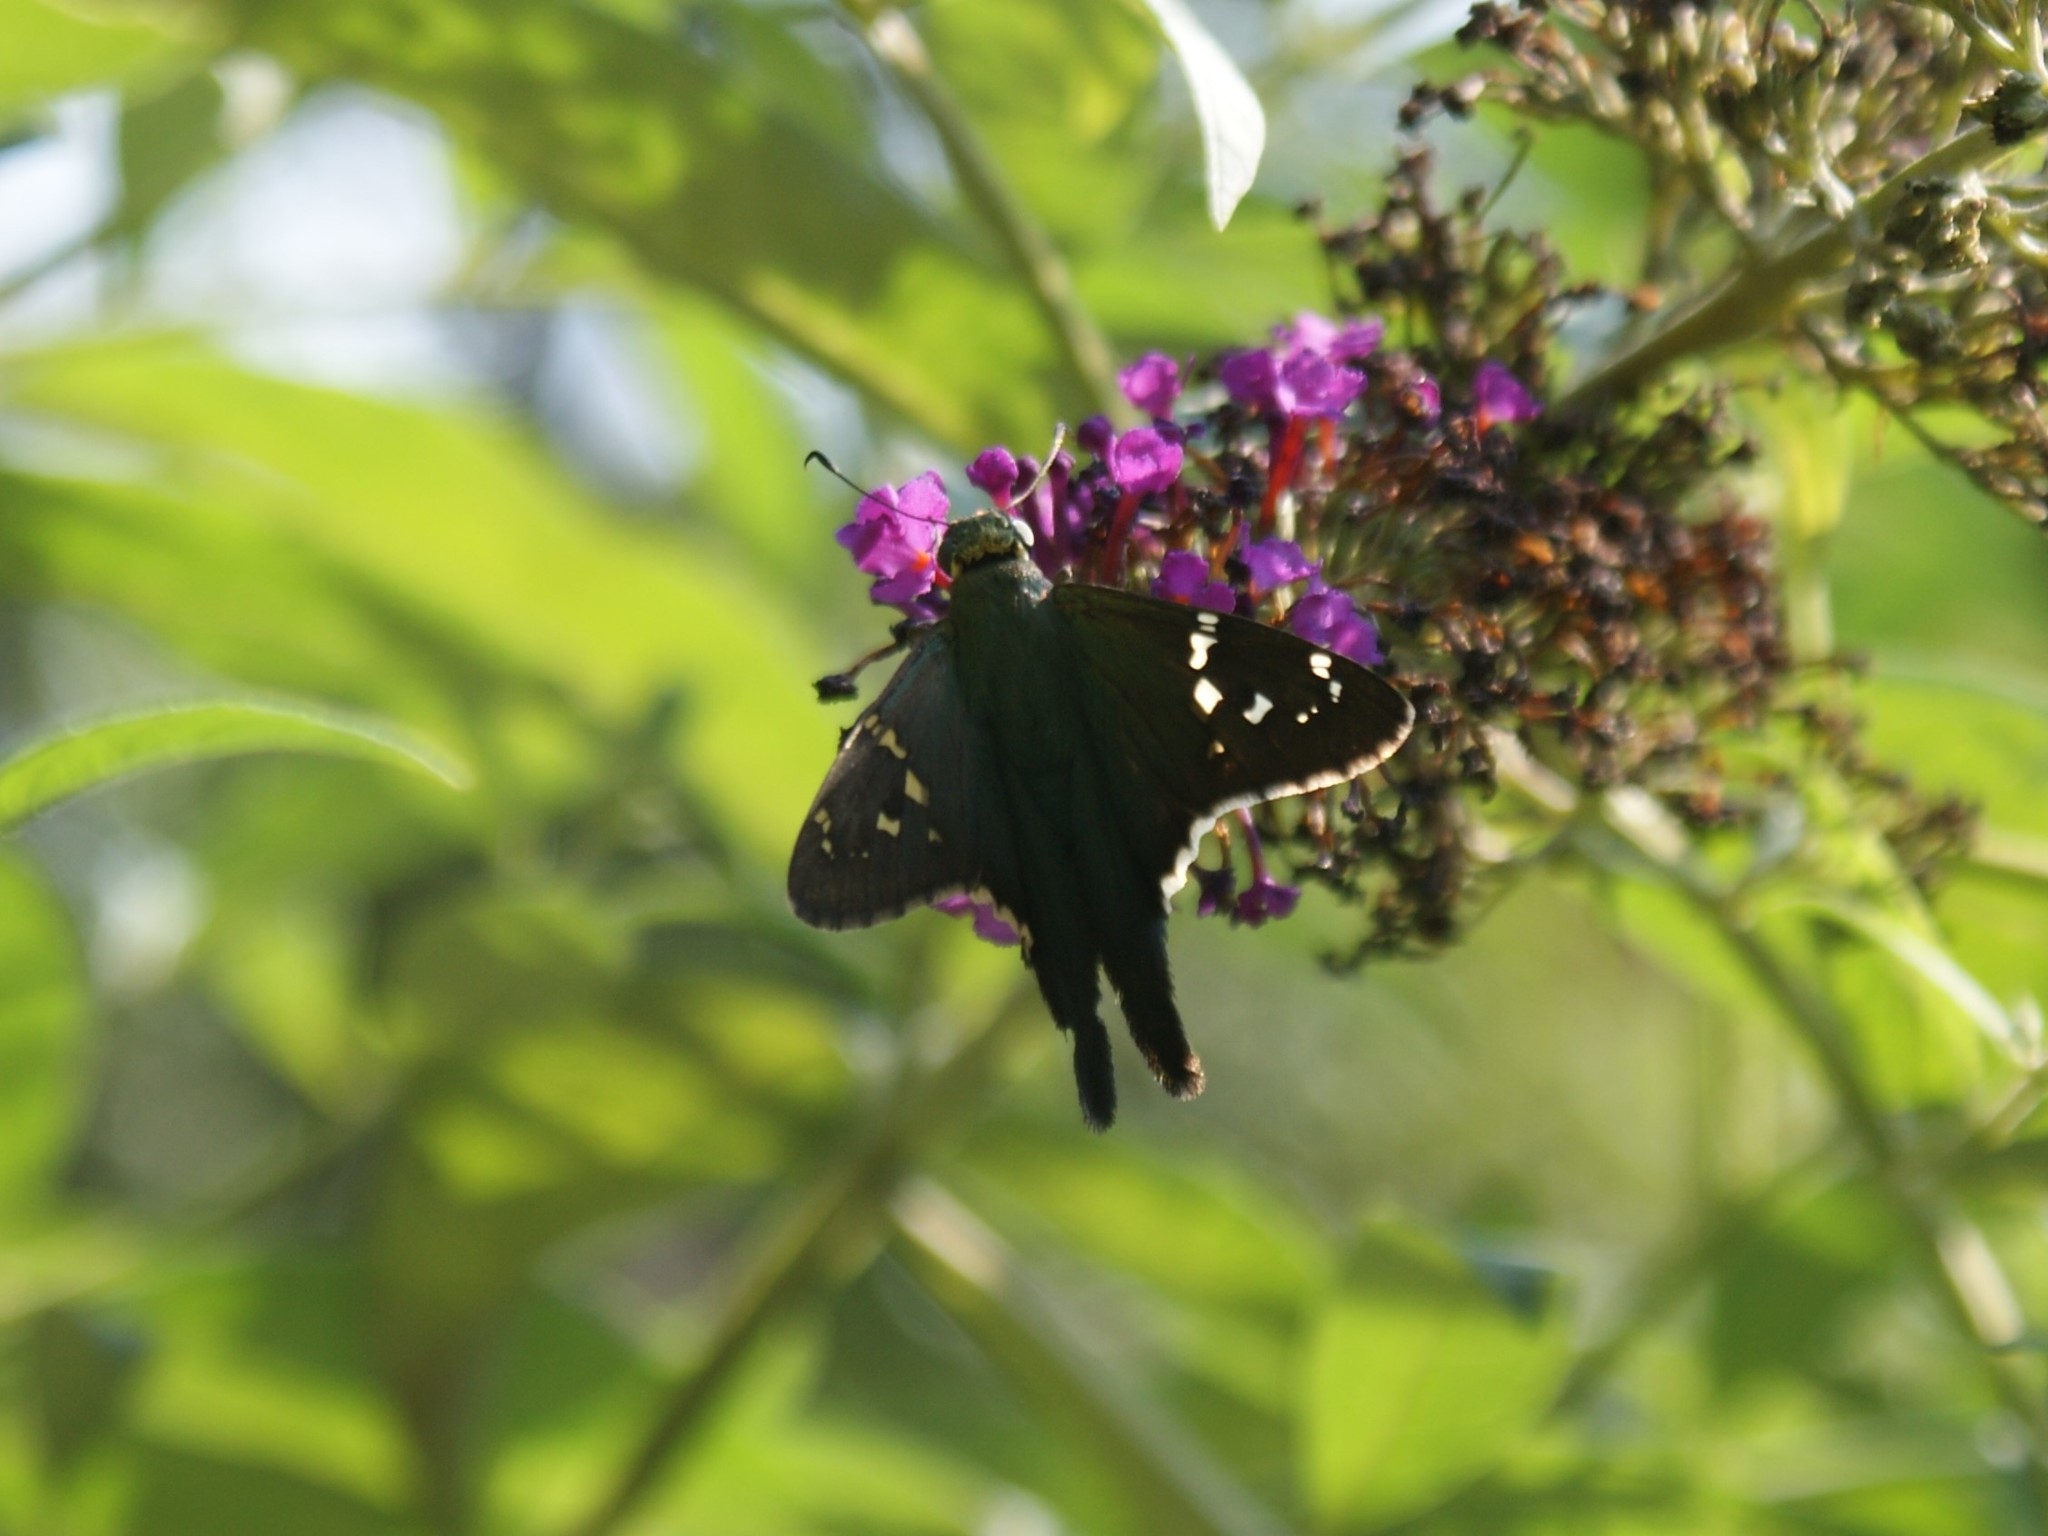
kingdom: Animalia
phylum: Arthropoda
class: Insecta
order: Lepidoptera
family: Hesperiidae
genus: Urbanus
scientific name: Urbanus proteus
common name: Long-tailed skipper
